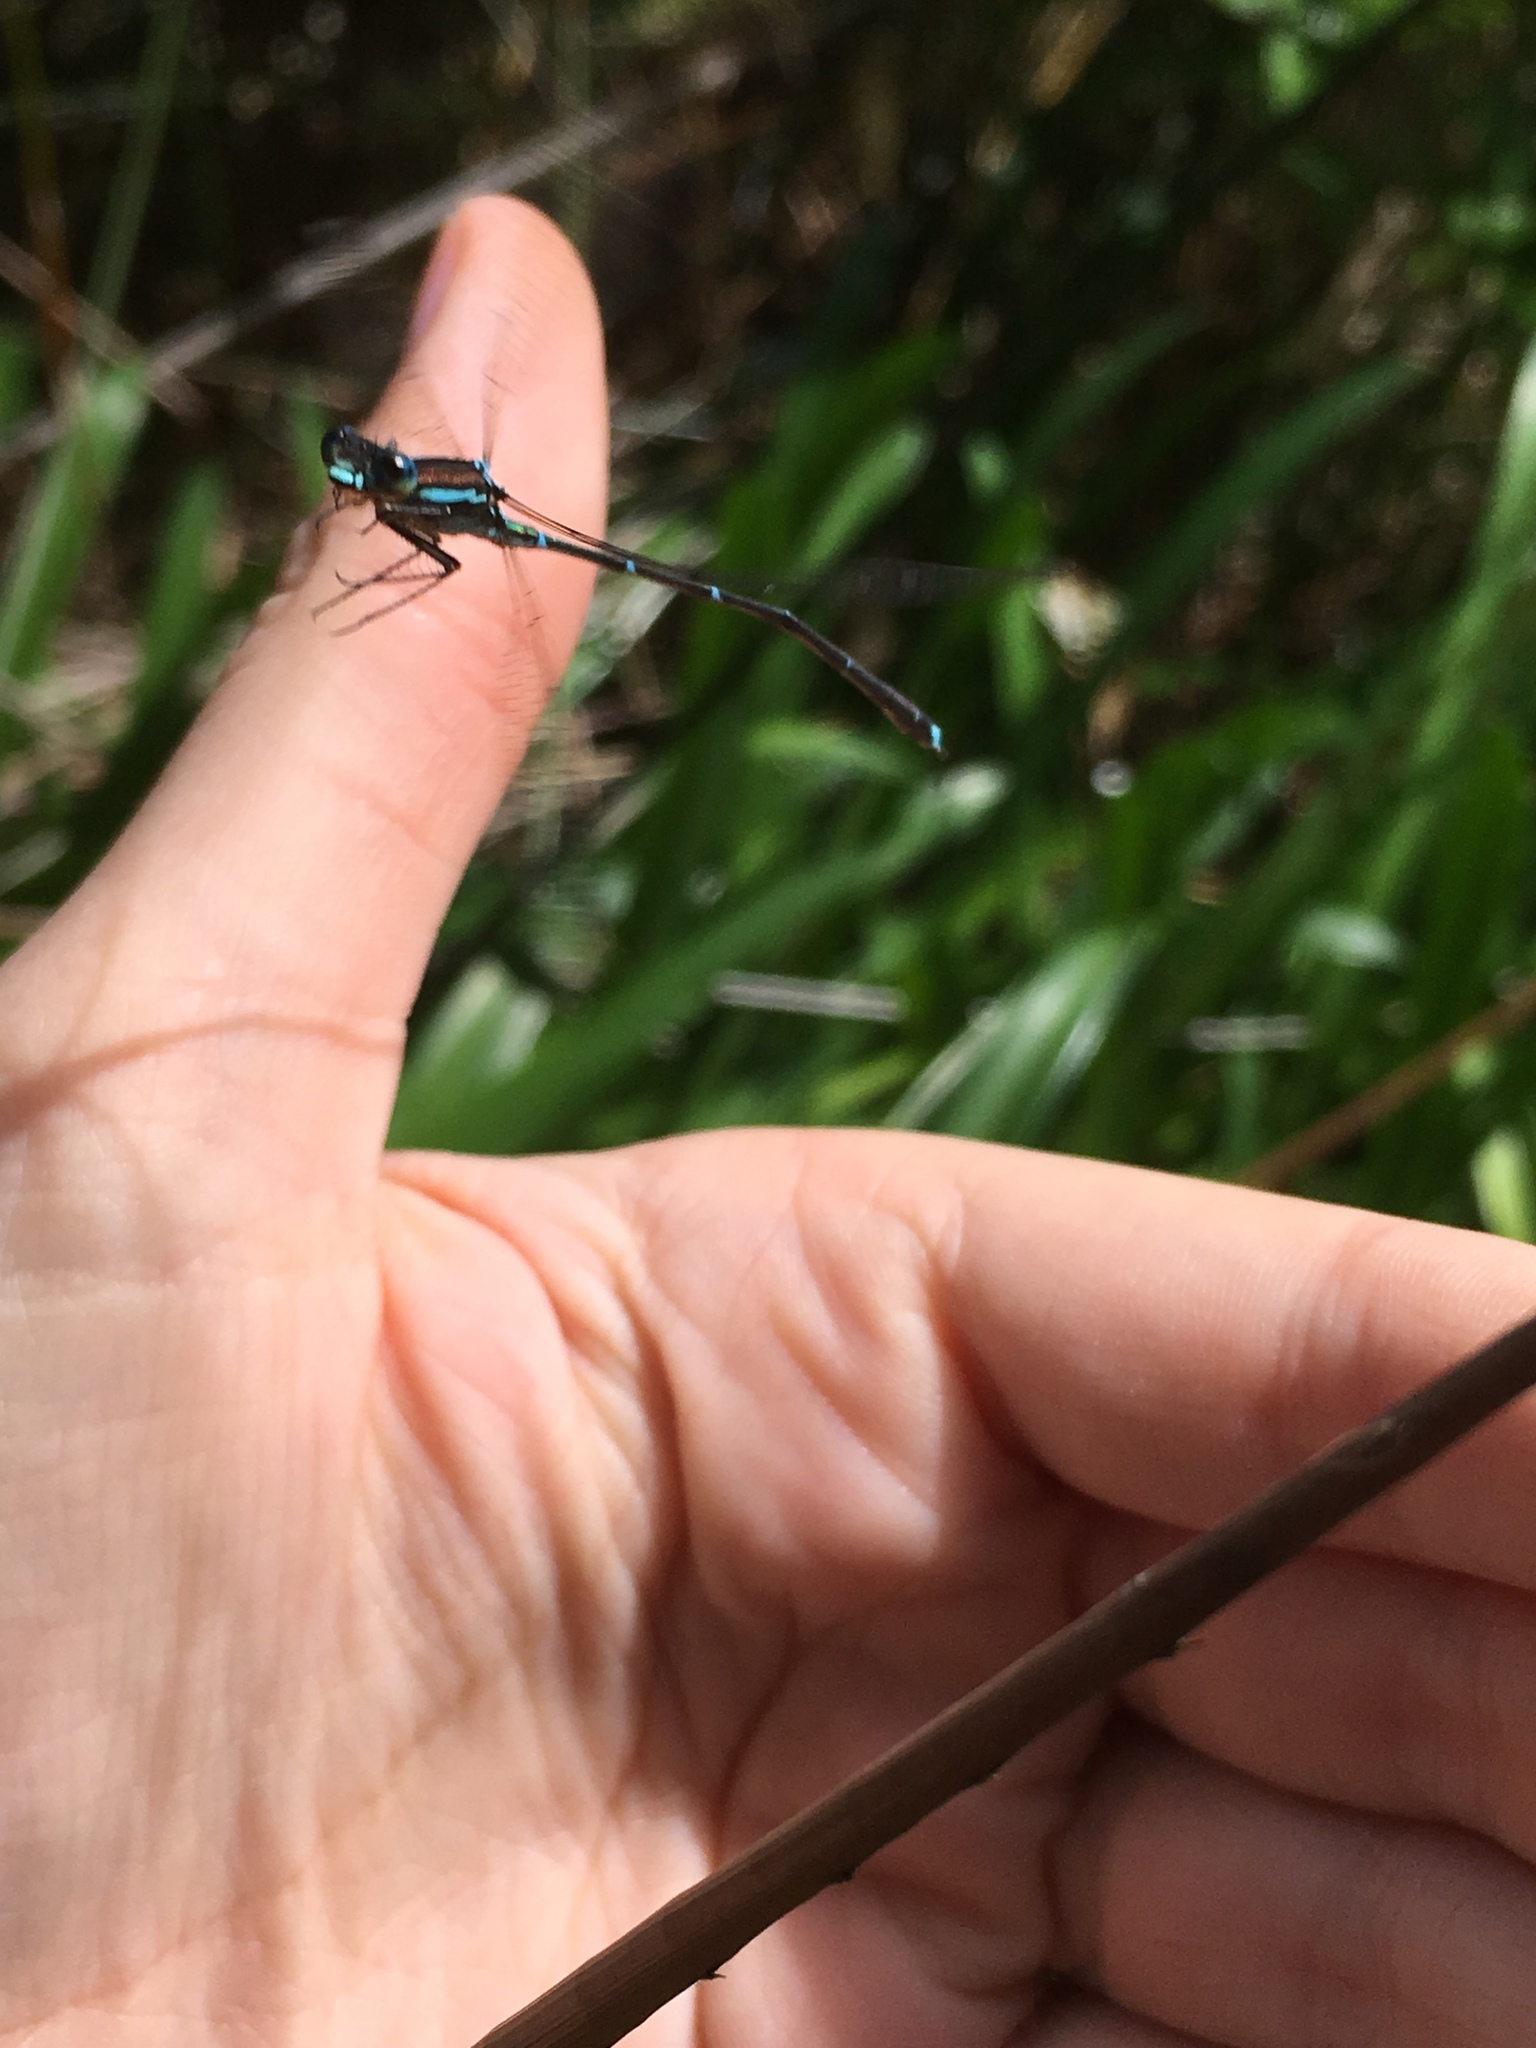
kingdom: Animalia
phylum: Arthropoda
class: Insecta
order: Odonata
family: Lestidae
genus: Austrolestes
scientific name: Austrolestes colensonis
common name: Blue damselfly
